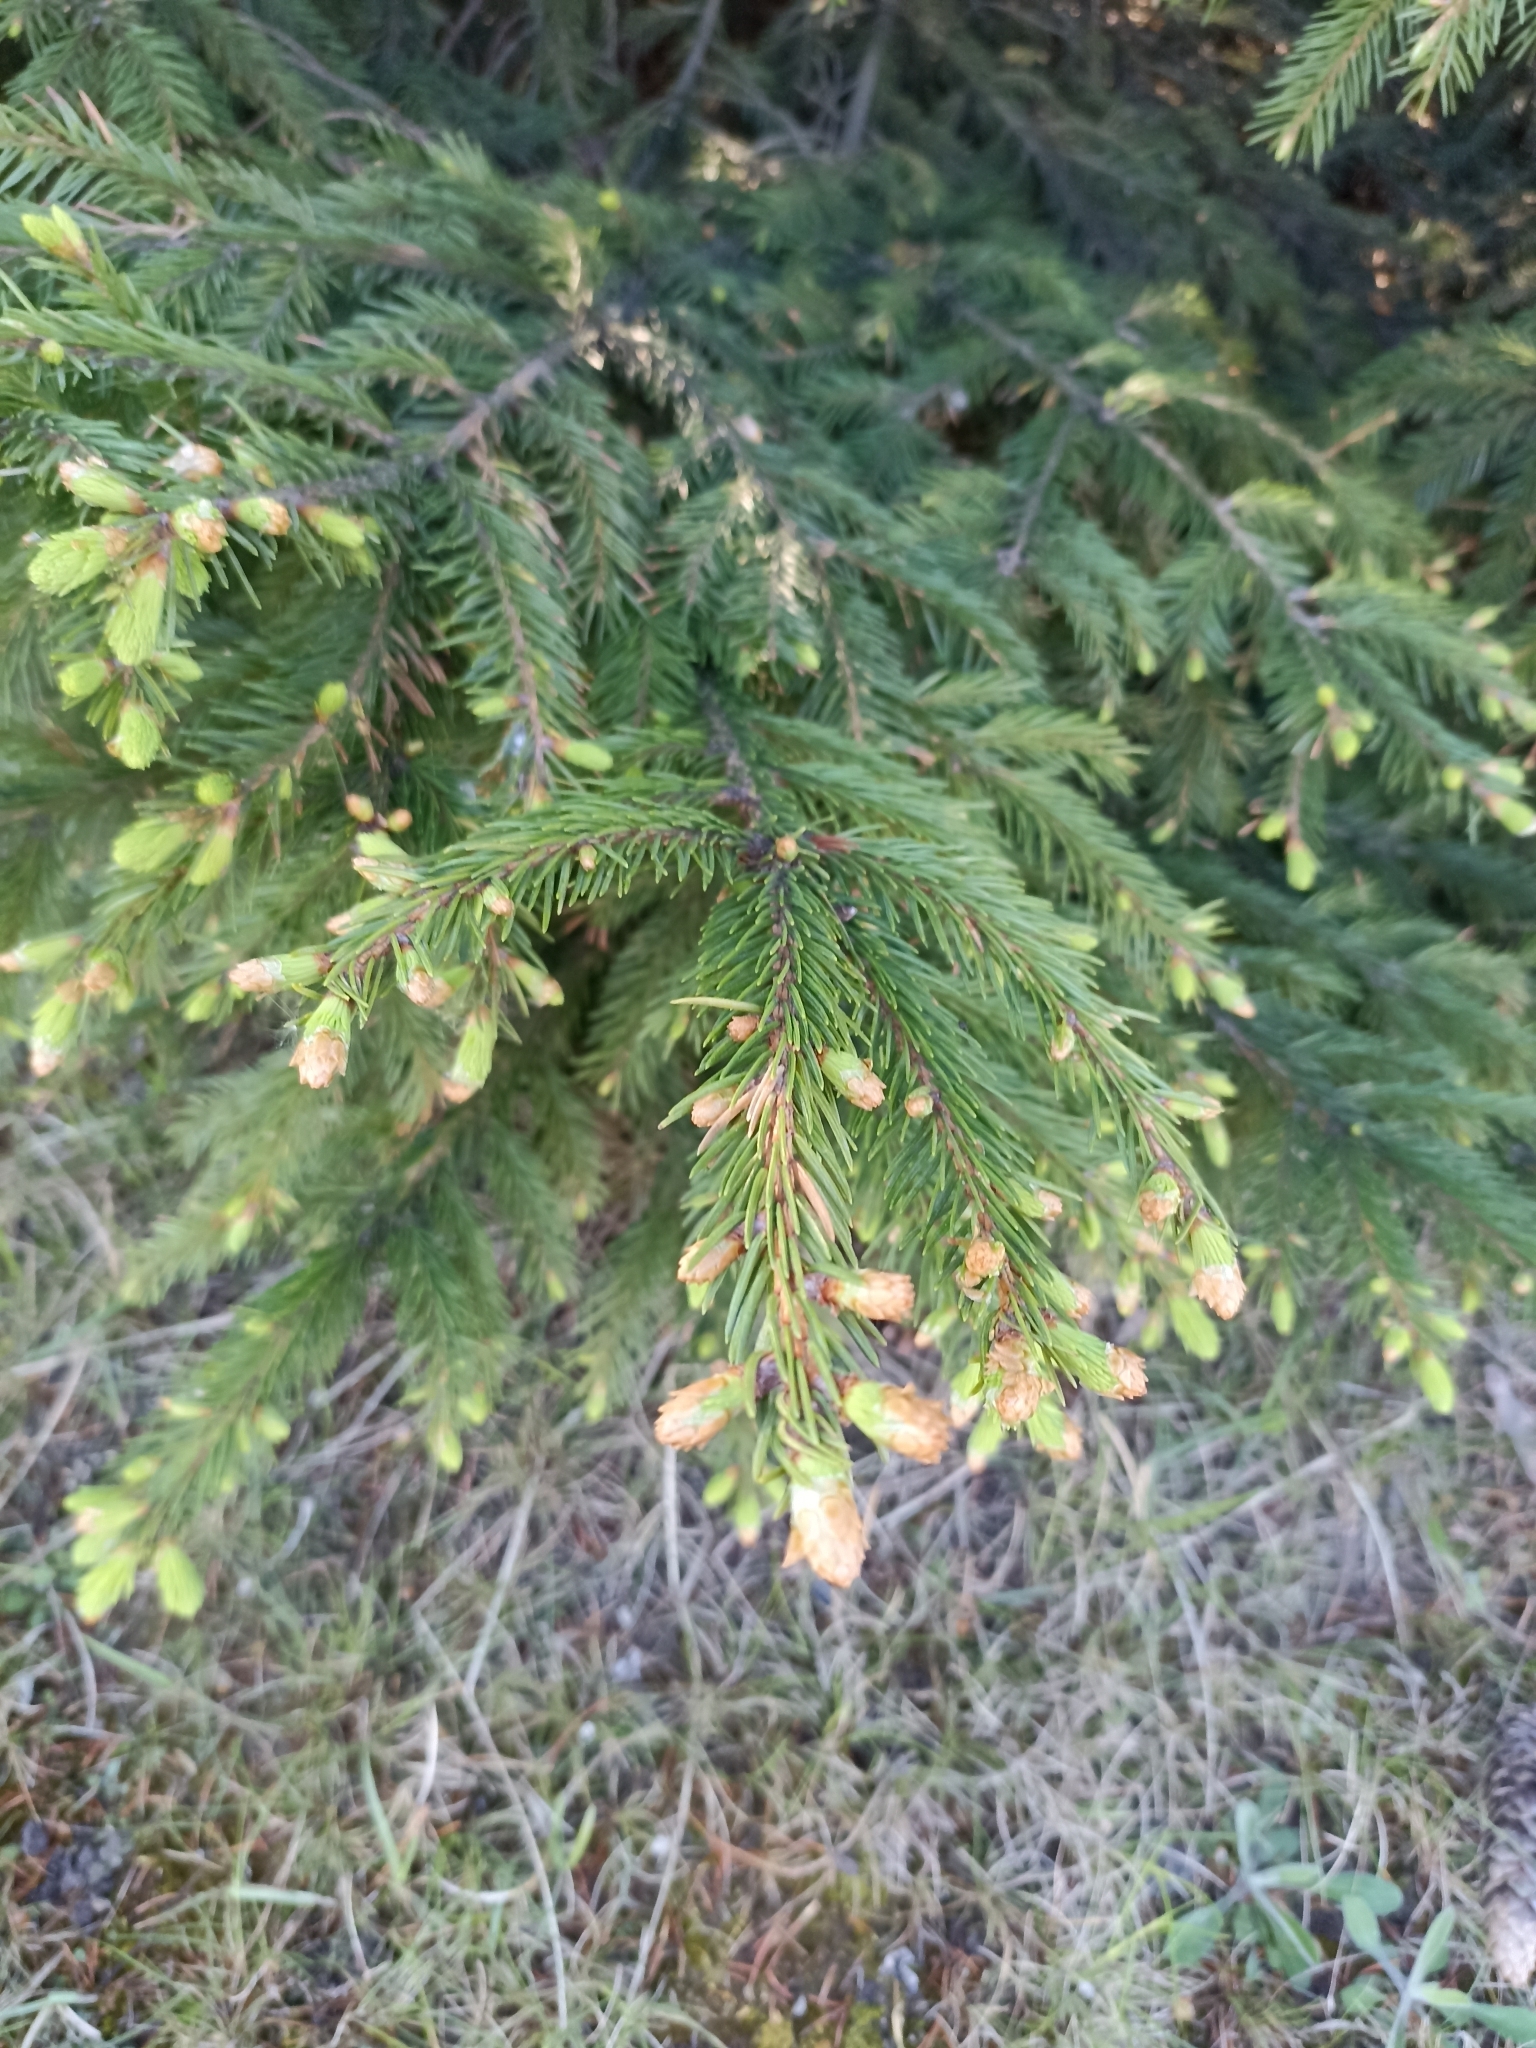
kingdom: Plantae
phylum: Tracheophyta
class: Pinopsida
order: Pinales
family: Pinaceae
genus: Picea
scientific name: Picea
